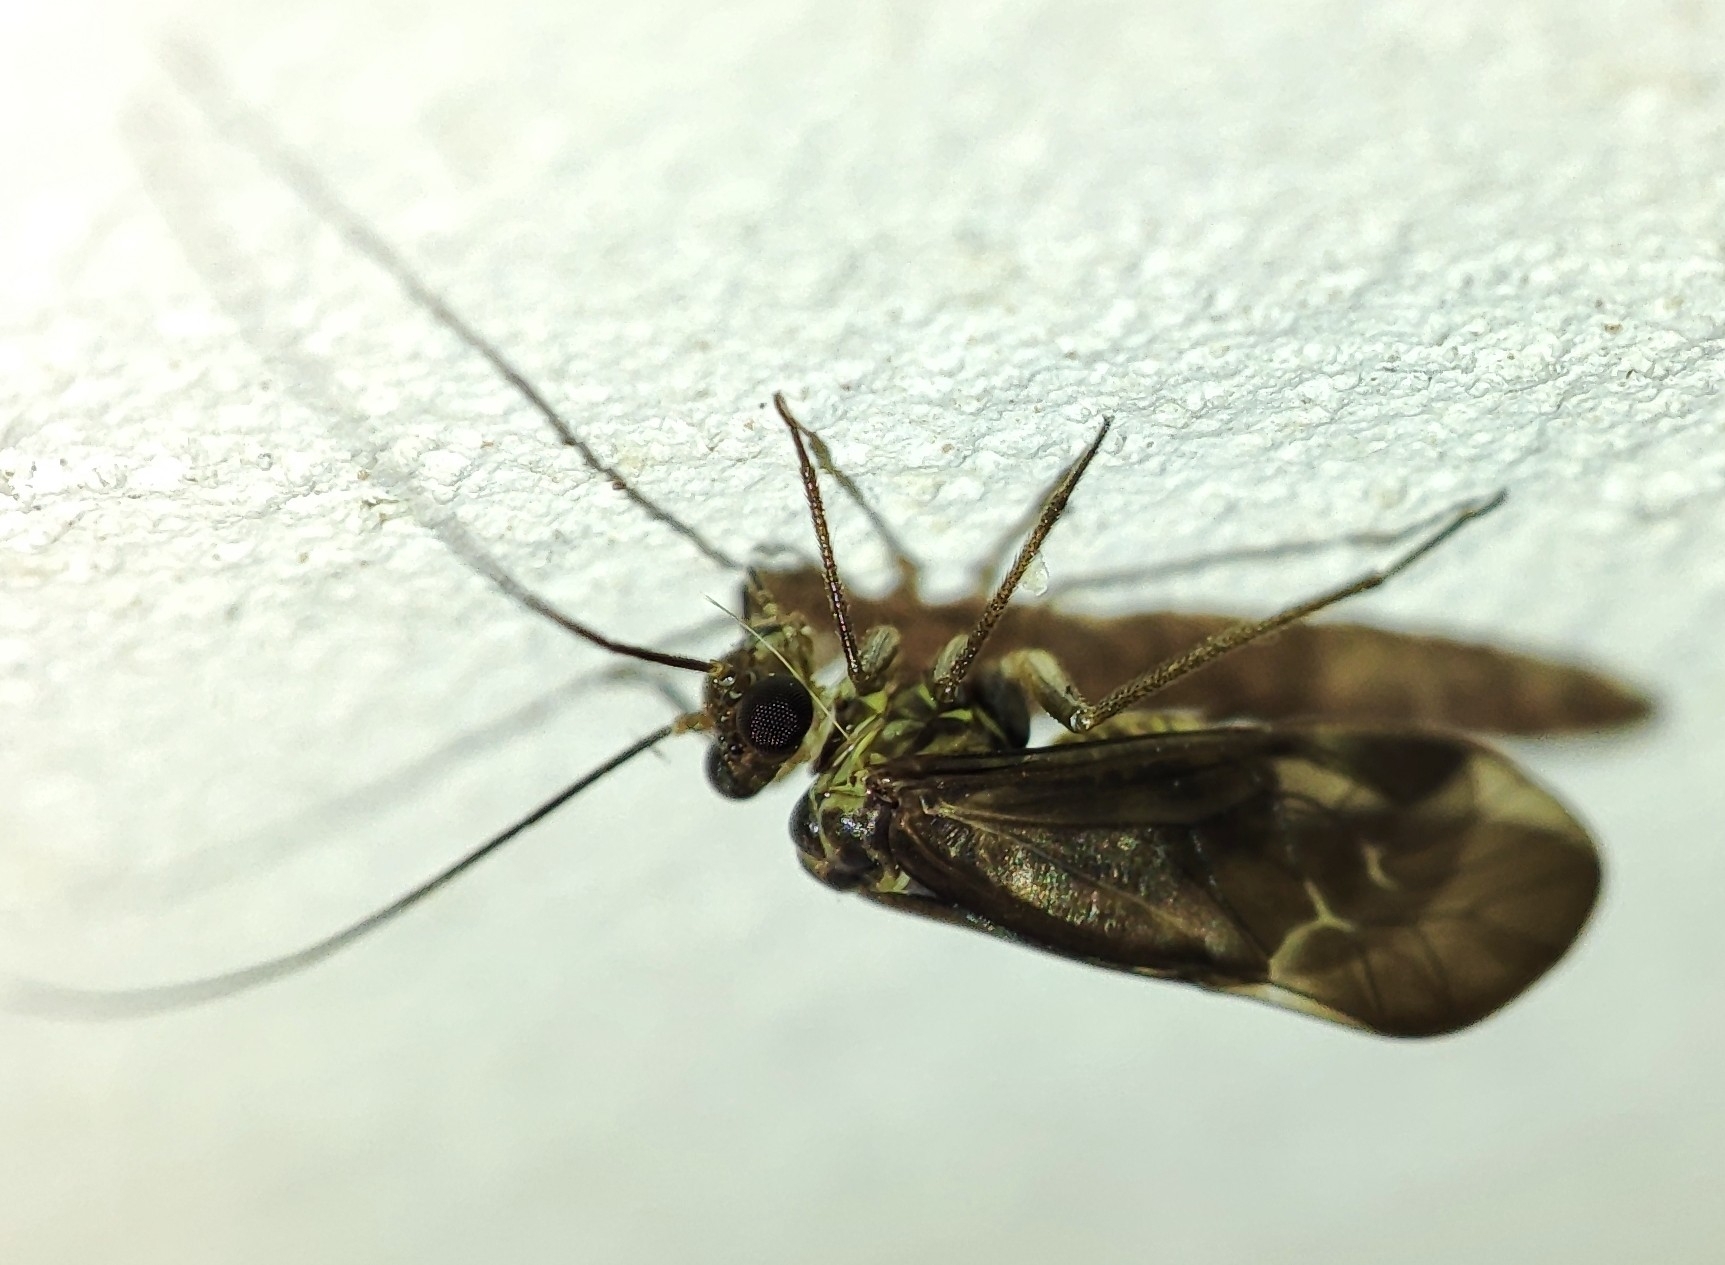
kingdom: Animalia
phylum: Arthropoda
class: Insecta
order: Psocodea
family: Psocidae
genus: Metylophorus
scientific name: Metylophorus nebulosus
